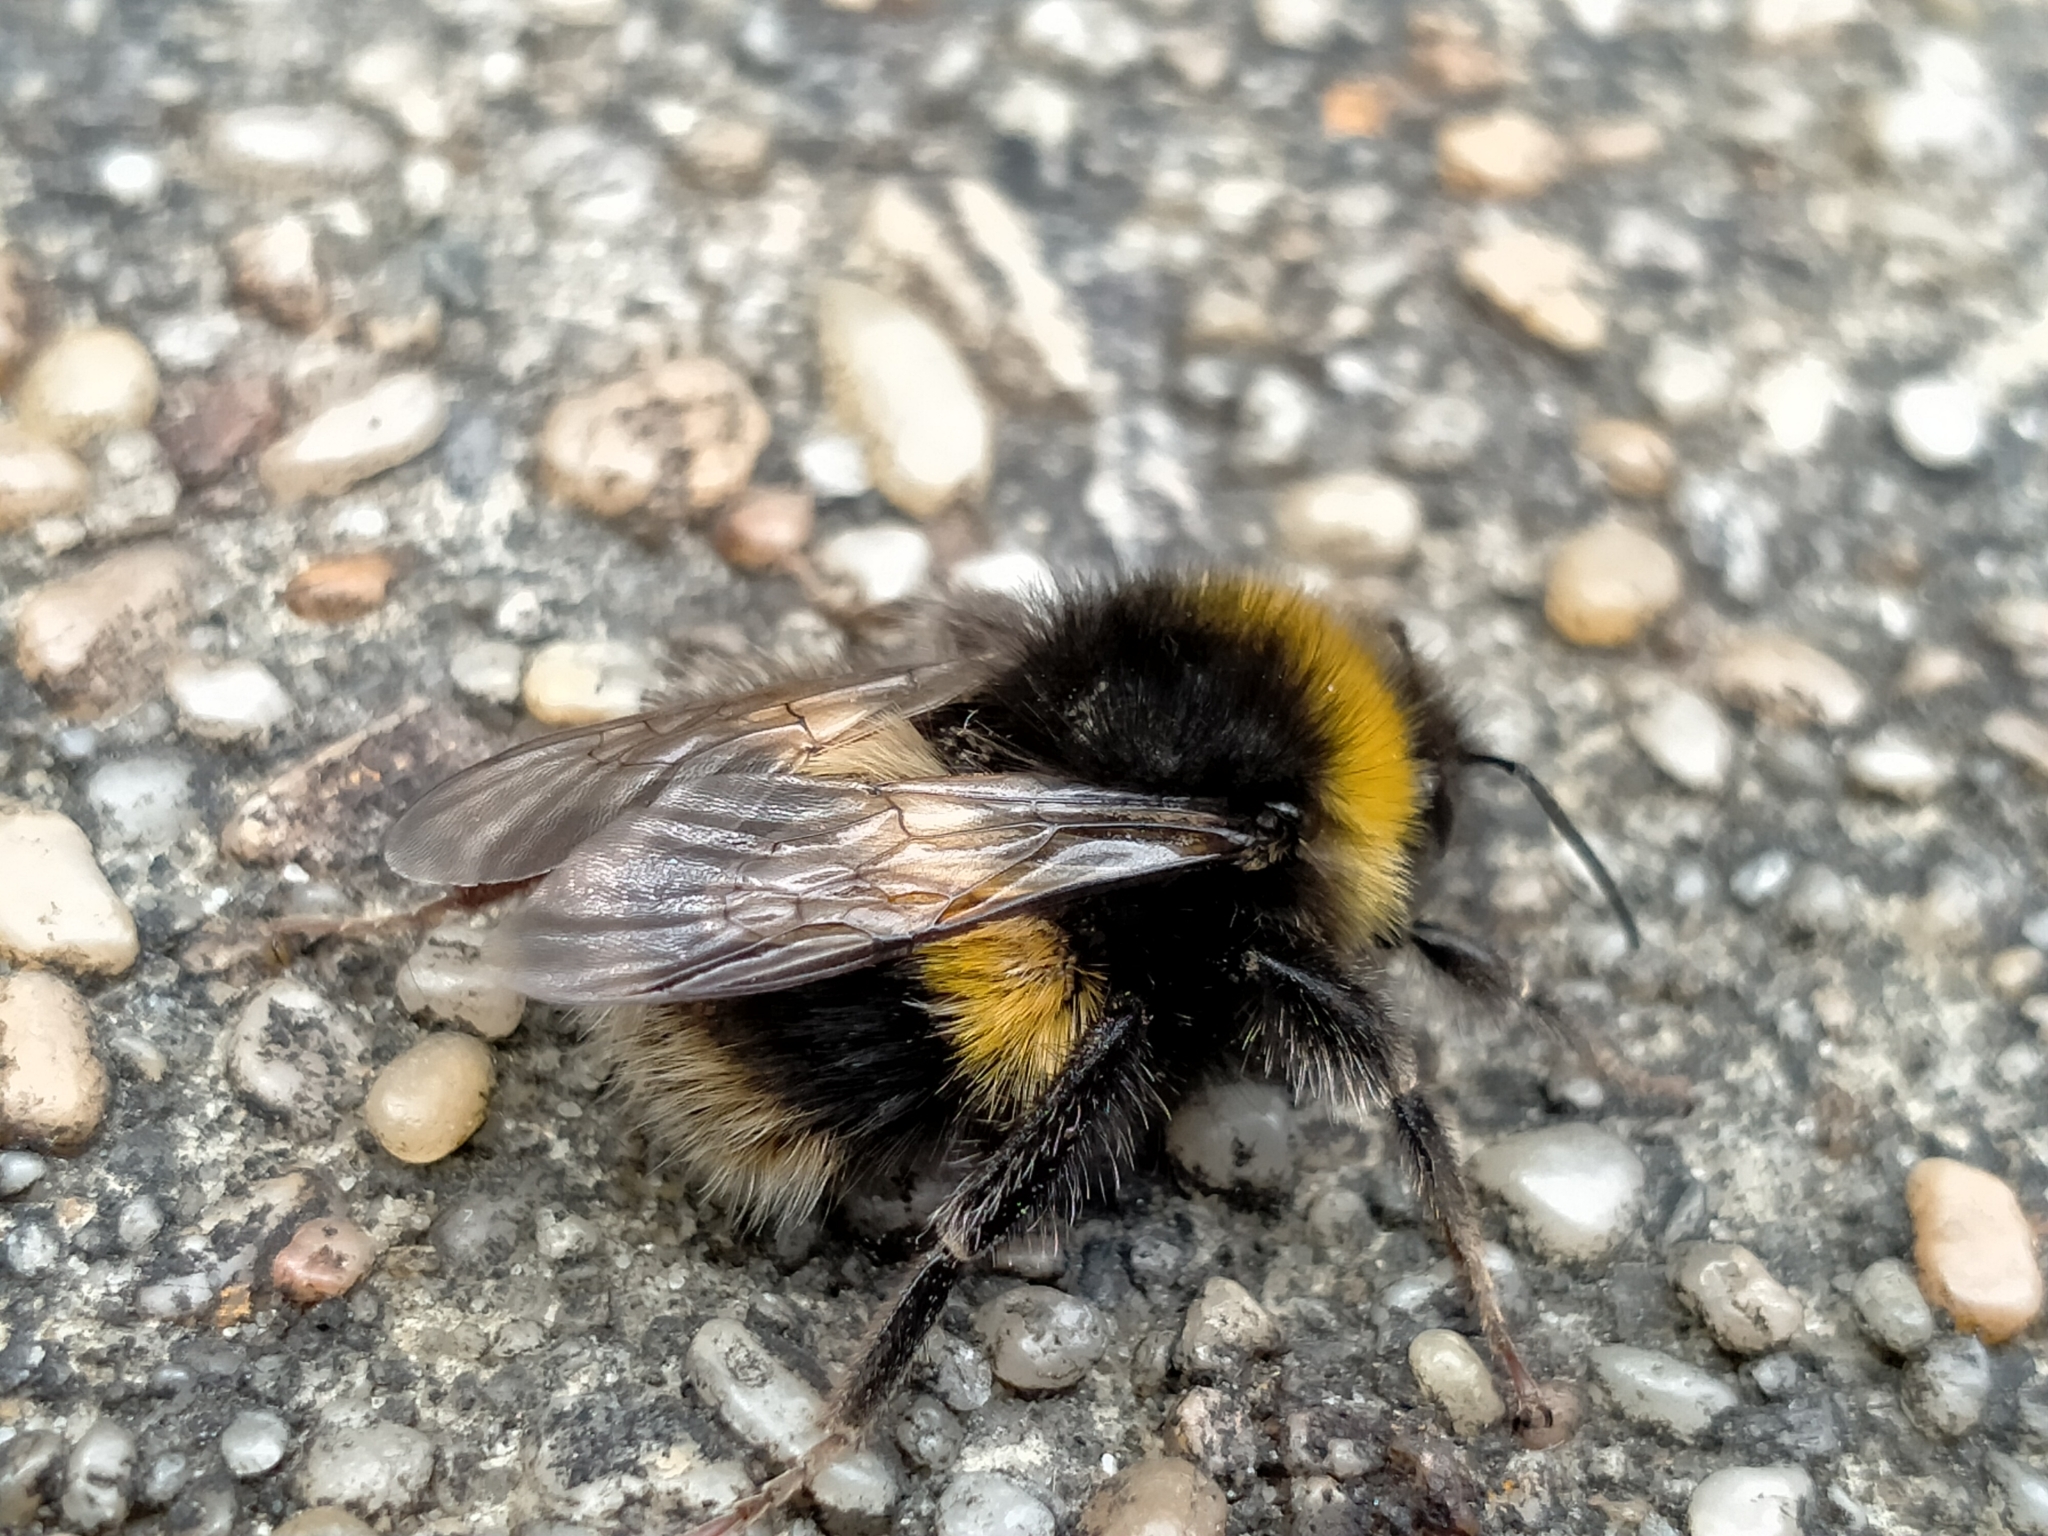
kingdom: Animalia
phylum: Arthropoda
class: Insecta
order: Hymenoptera
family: Apidae
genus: Bombus
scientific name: Bombus terrestris
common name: Buff-tailed bumblebee
